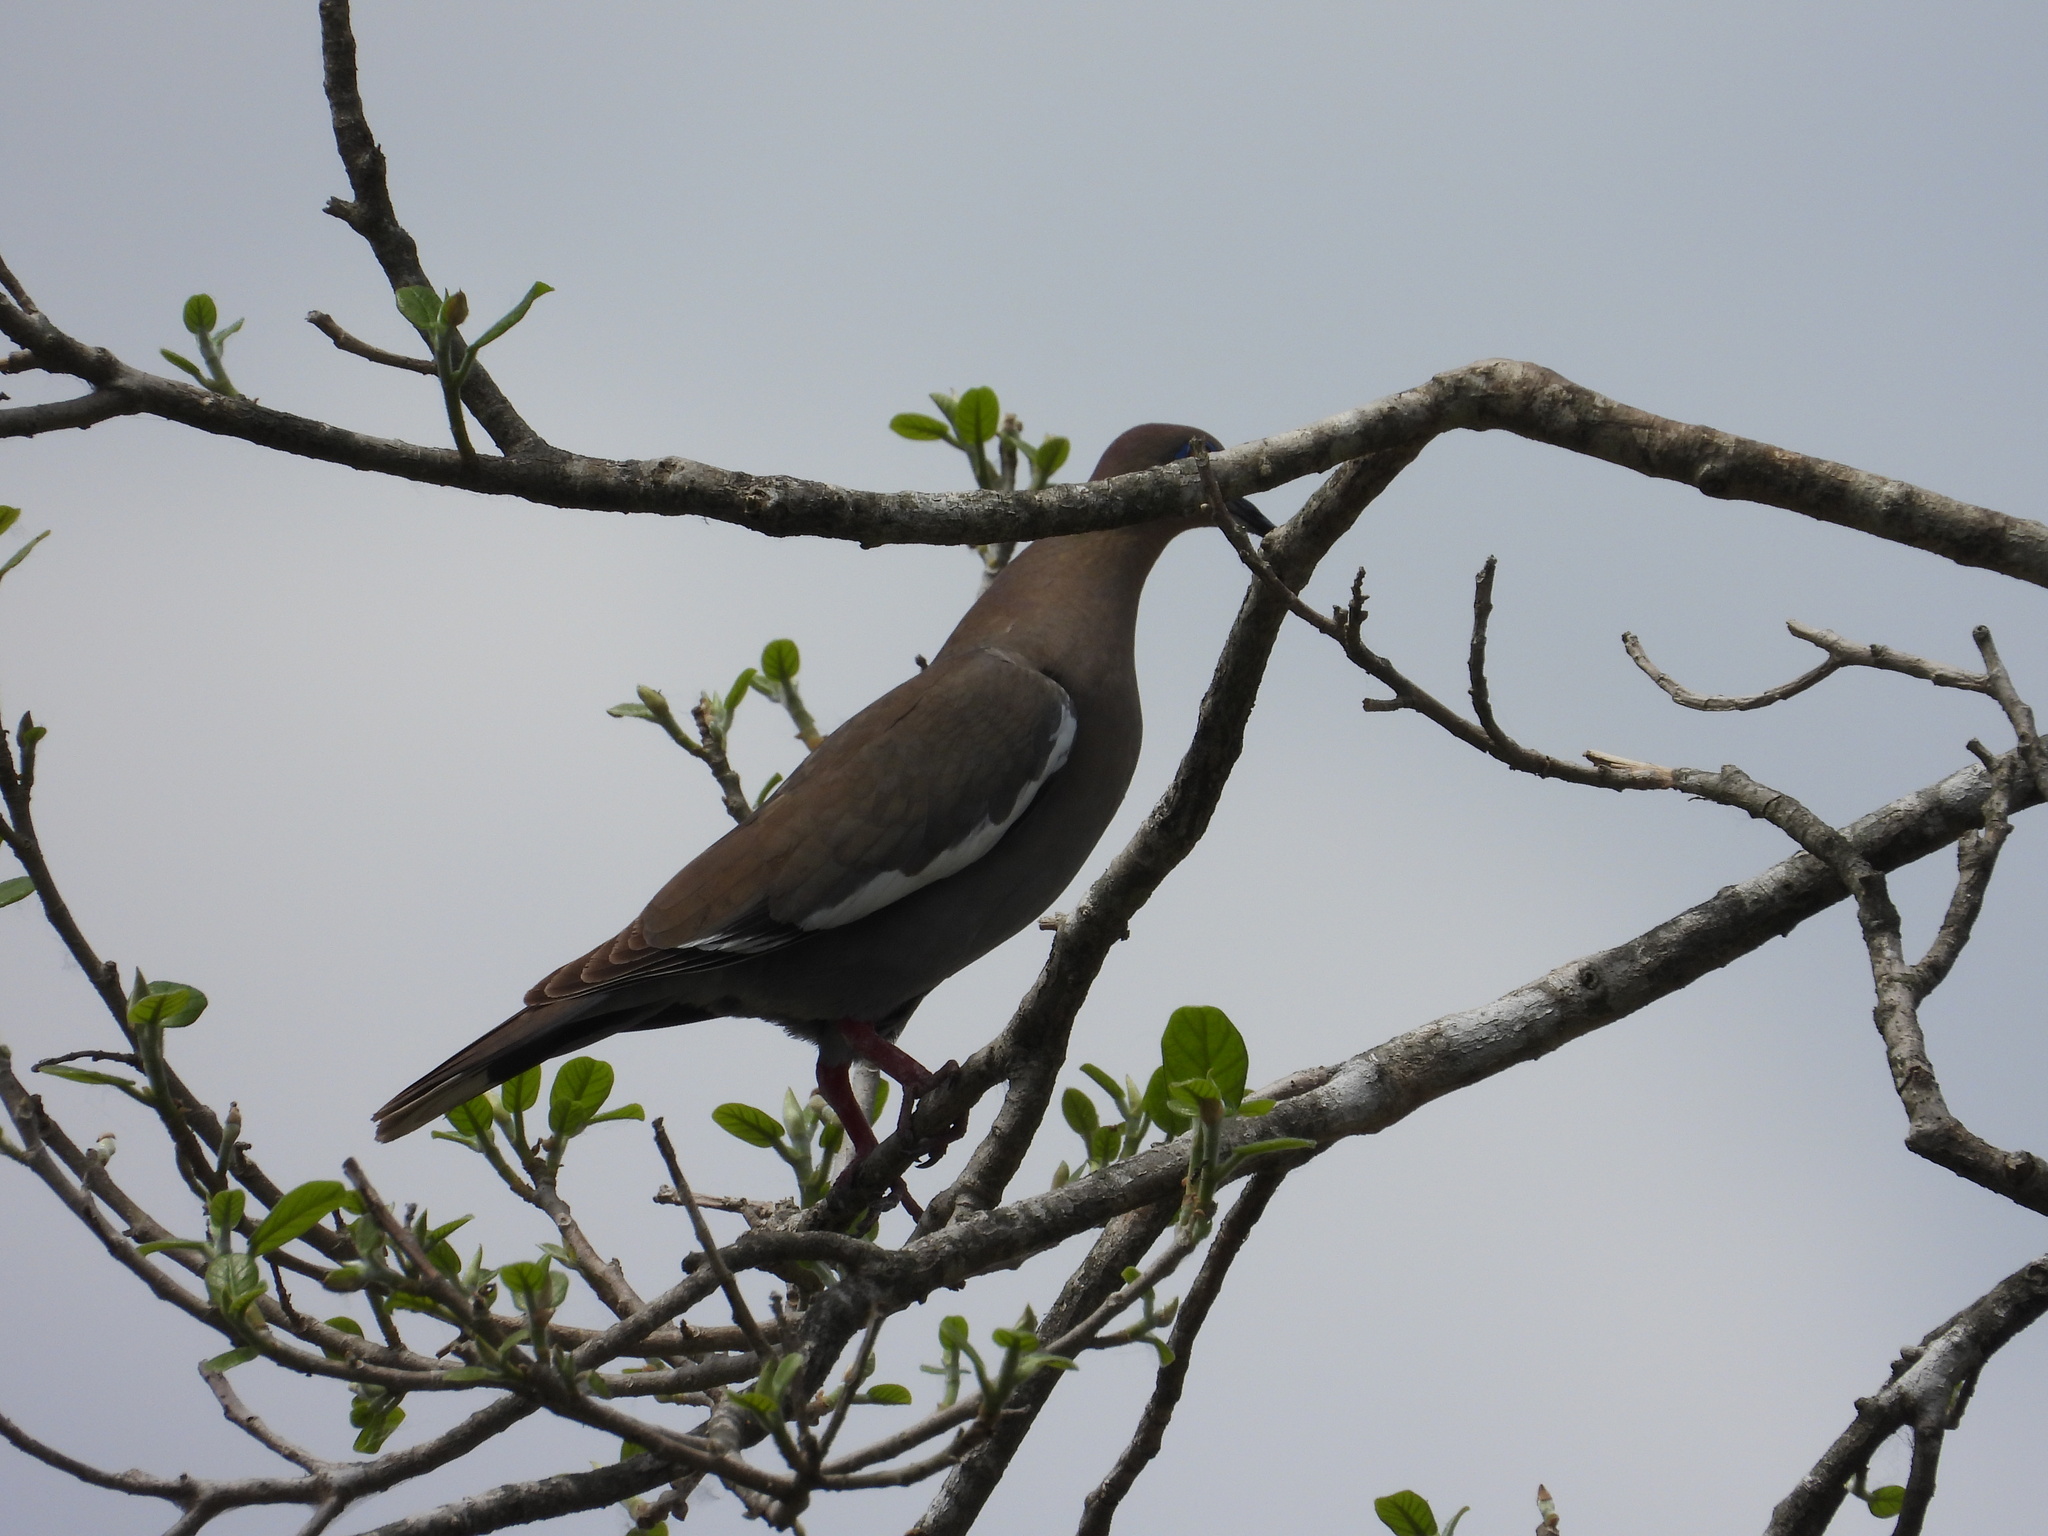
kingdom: Animalia
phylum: Chordata
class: Aves
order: Columbiformes
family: Columbidae
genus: Zenaida
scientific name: Zenaida asiatica
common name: White-winged dove
